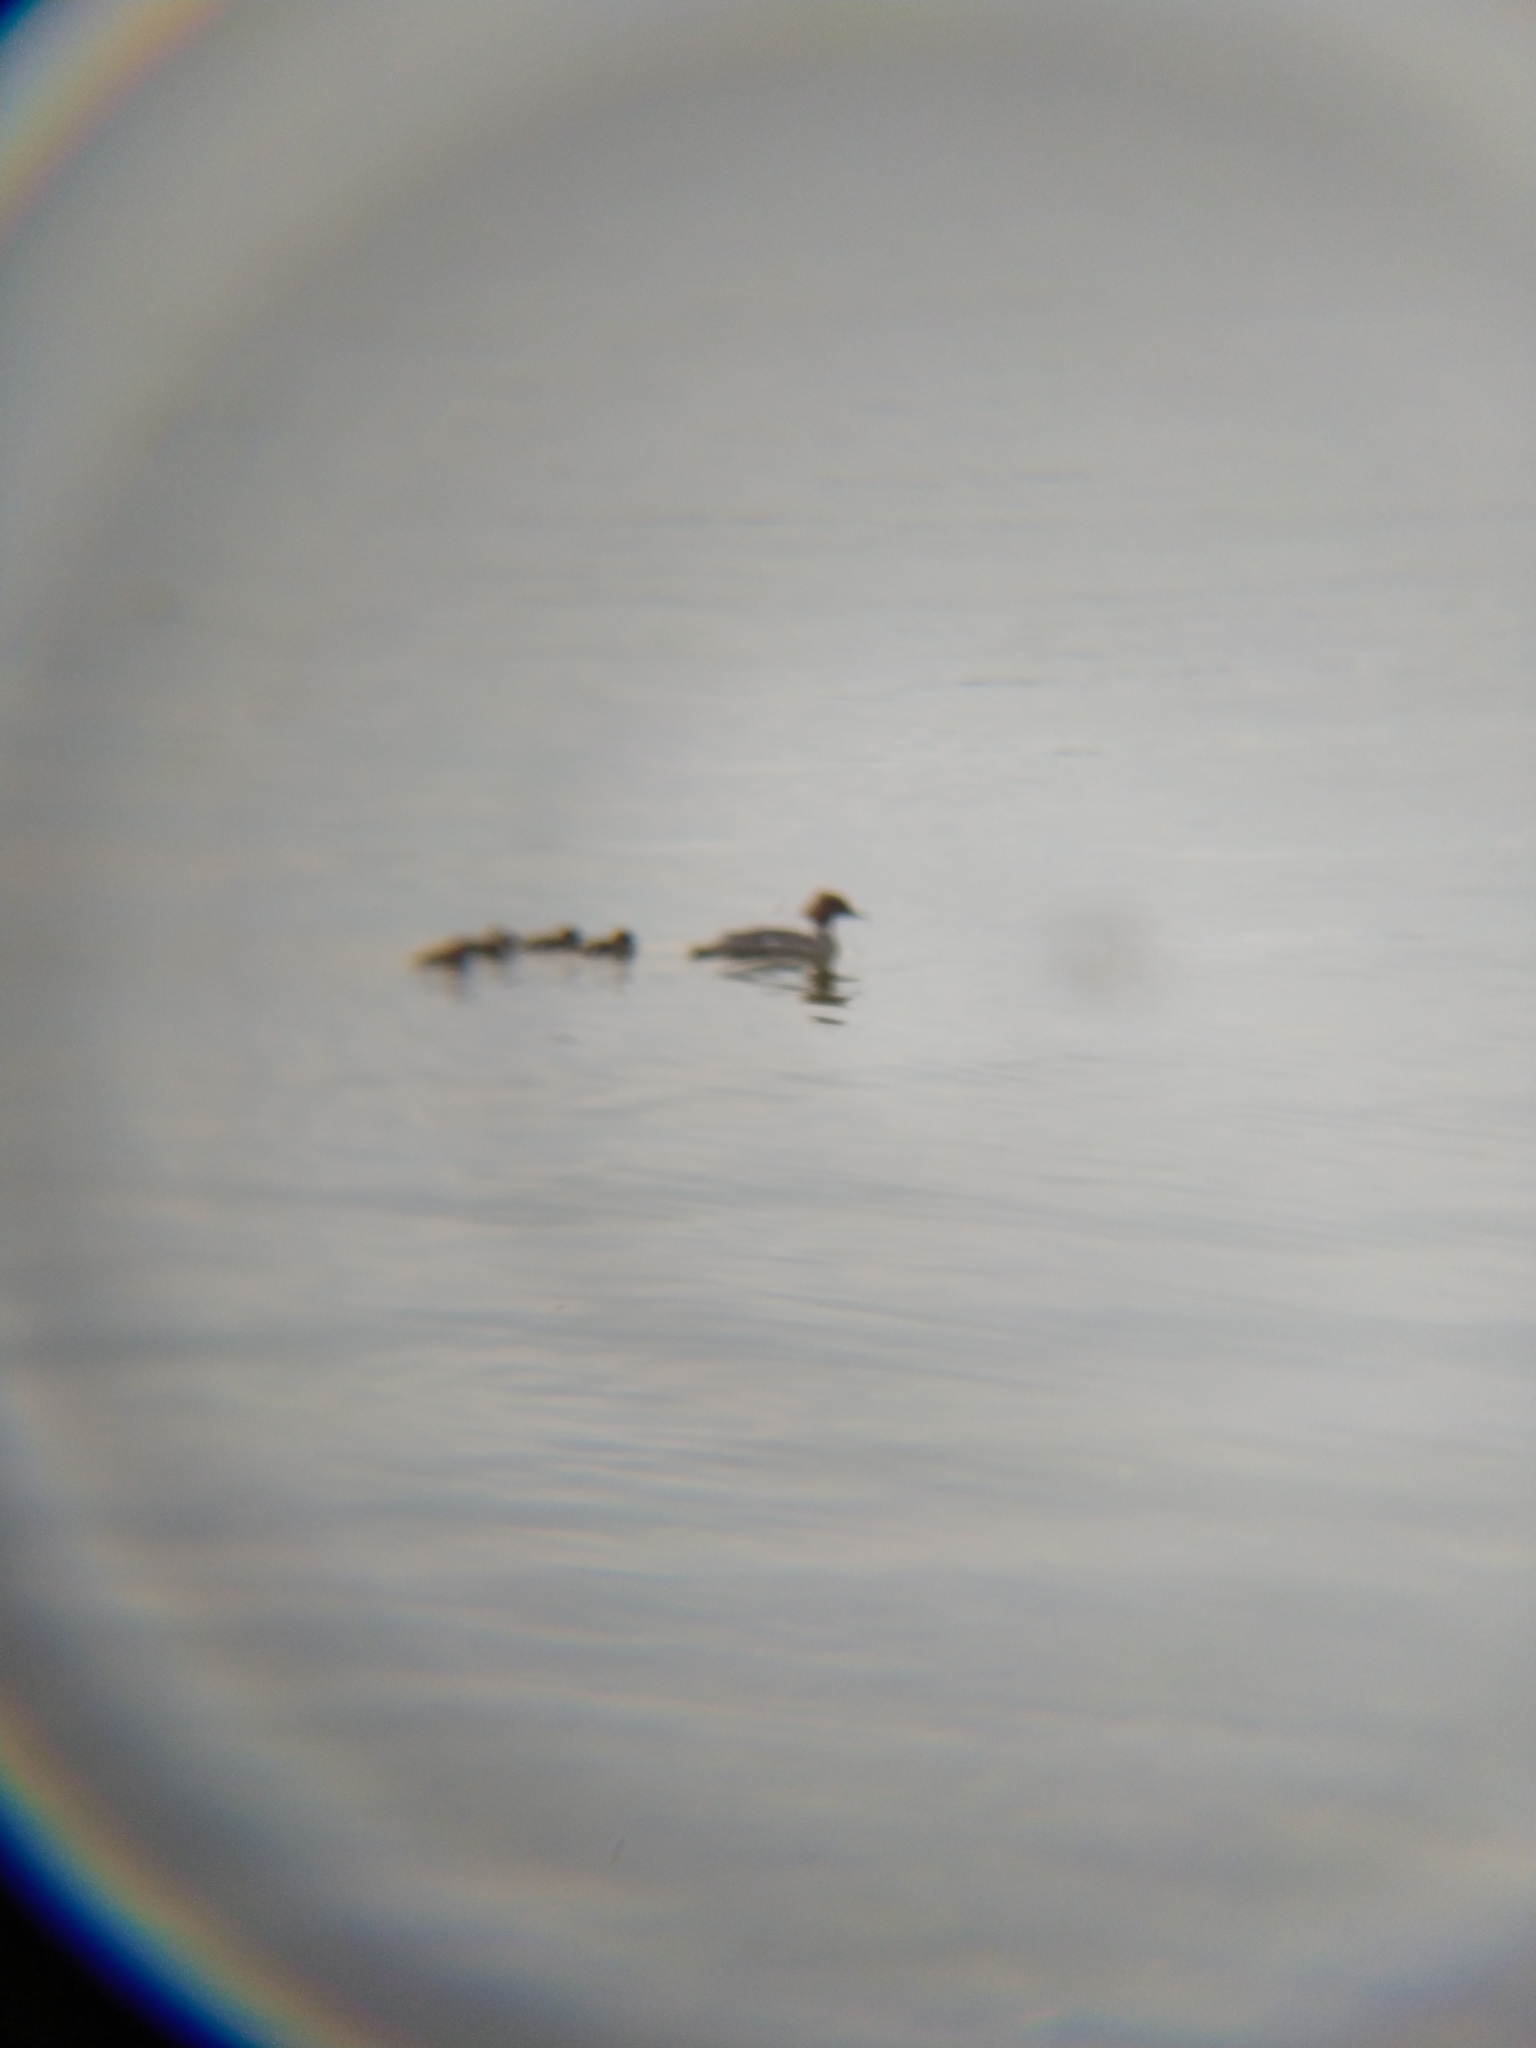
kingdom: Animalia
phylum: Chordata
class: Aves
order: Anseriformes
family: Anatidae
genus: Mergus
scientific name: Mergus merganser
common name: Common merganser
